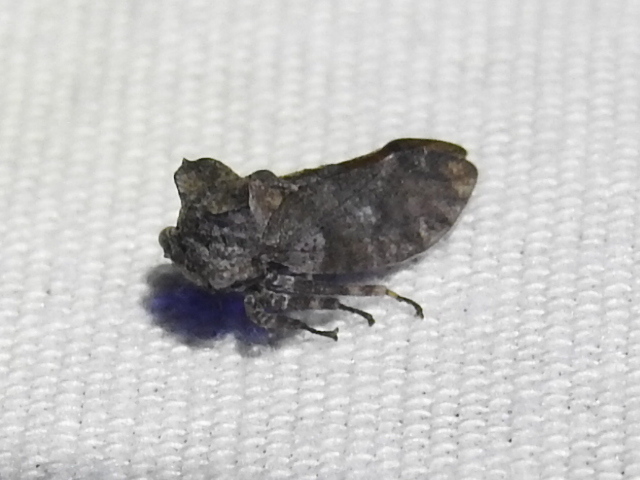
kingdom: Animalia
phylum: Arthropoda
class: Insecta
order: Hemiptera
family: Membracidae
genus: Microcentrus
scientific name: Microcentrus perdita
